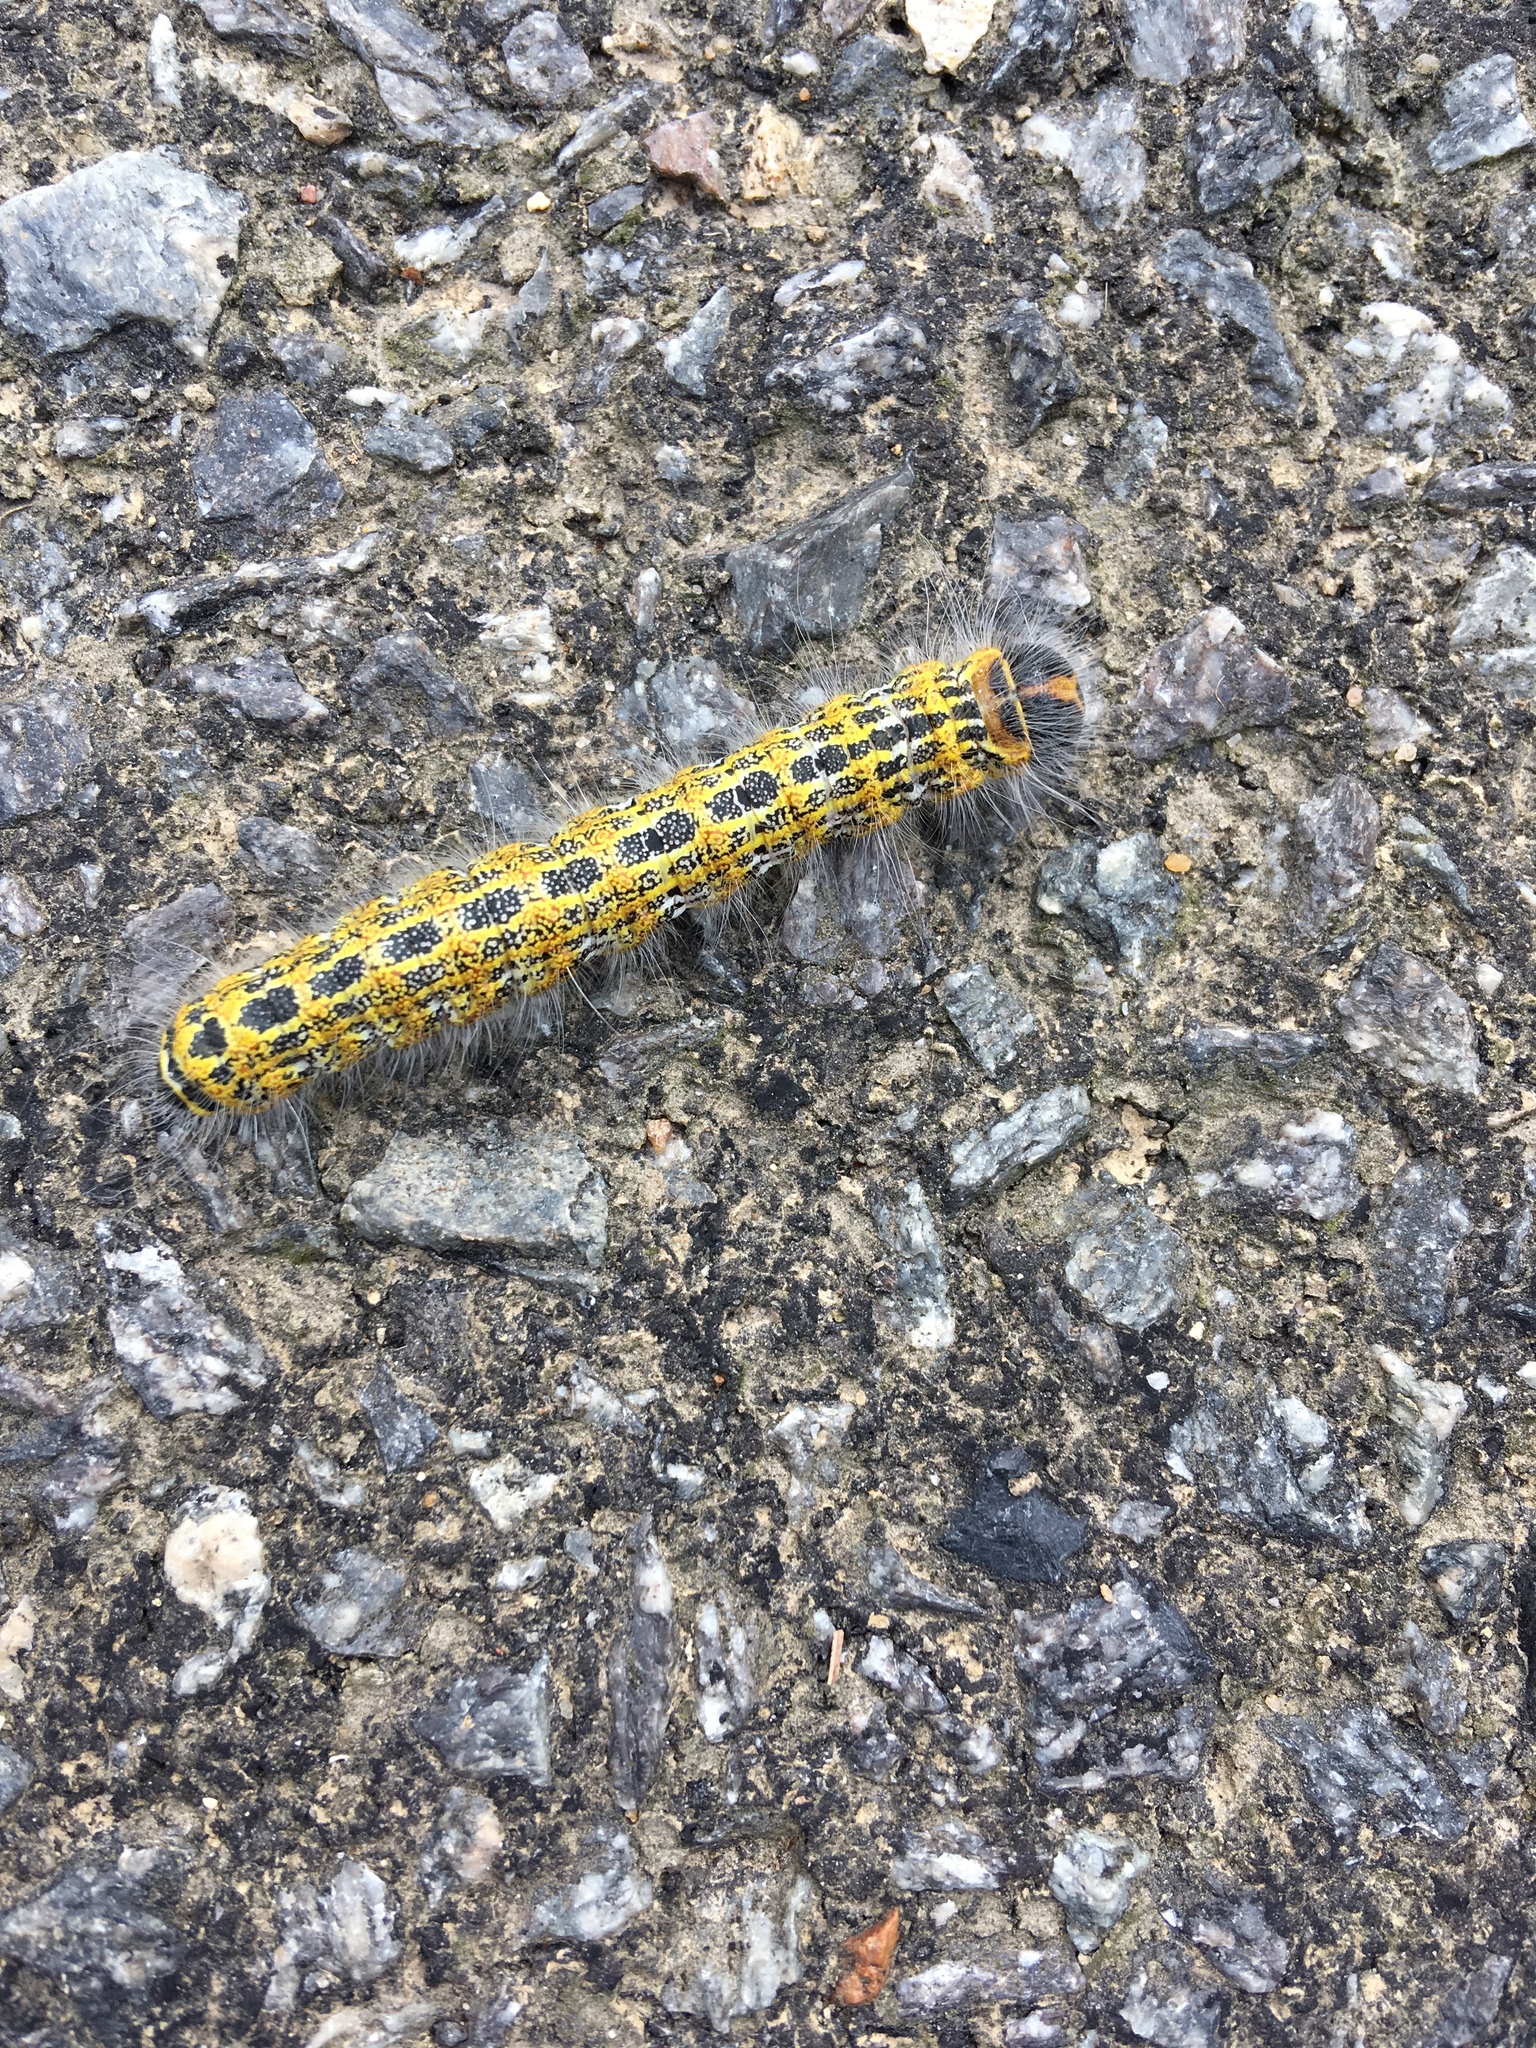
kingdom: Animalia
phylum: Arthropoda
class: Insecta
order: Lepidoptera
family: Notodontidae
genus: Phalera
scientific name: Phalera bucephala
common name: Buff-tip
